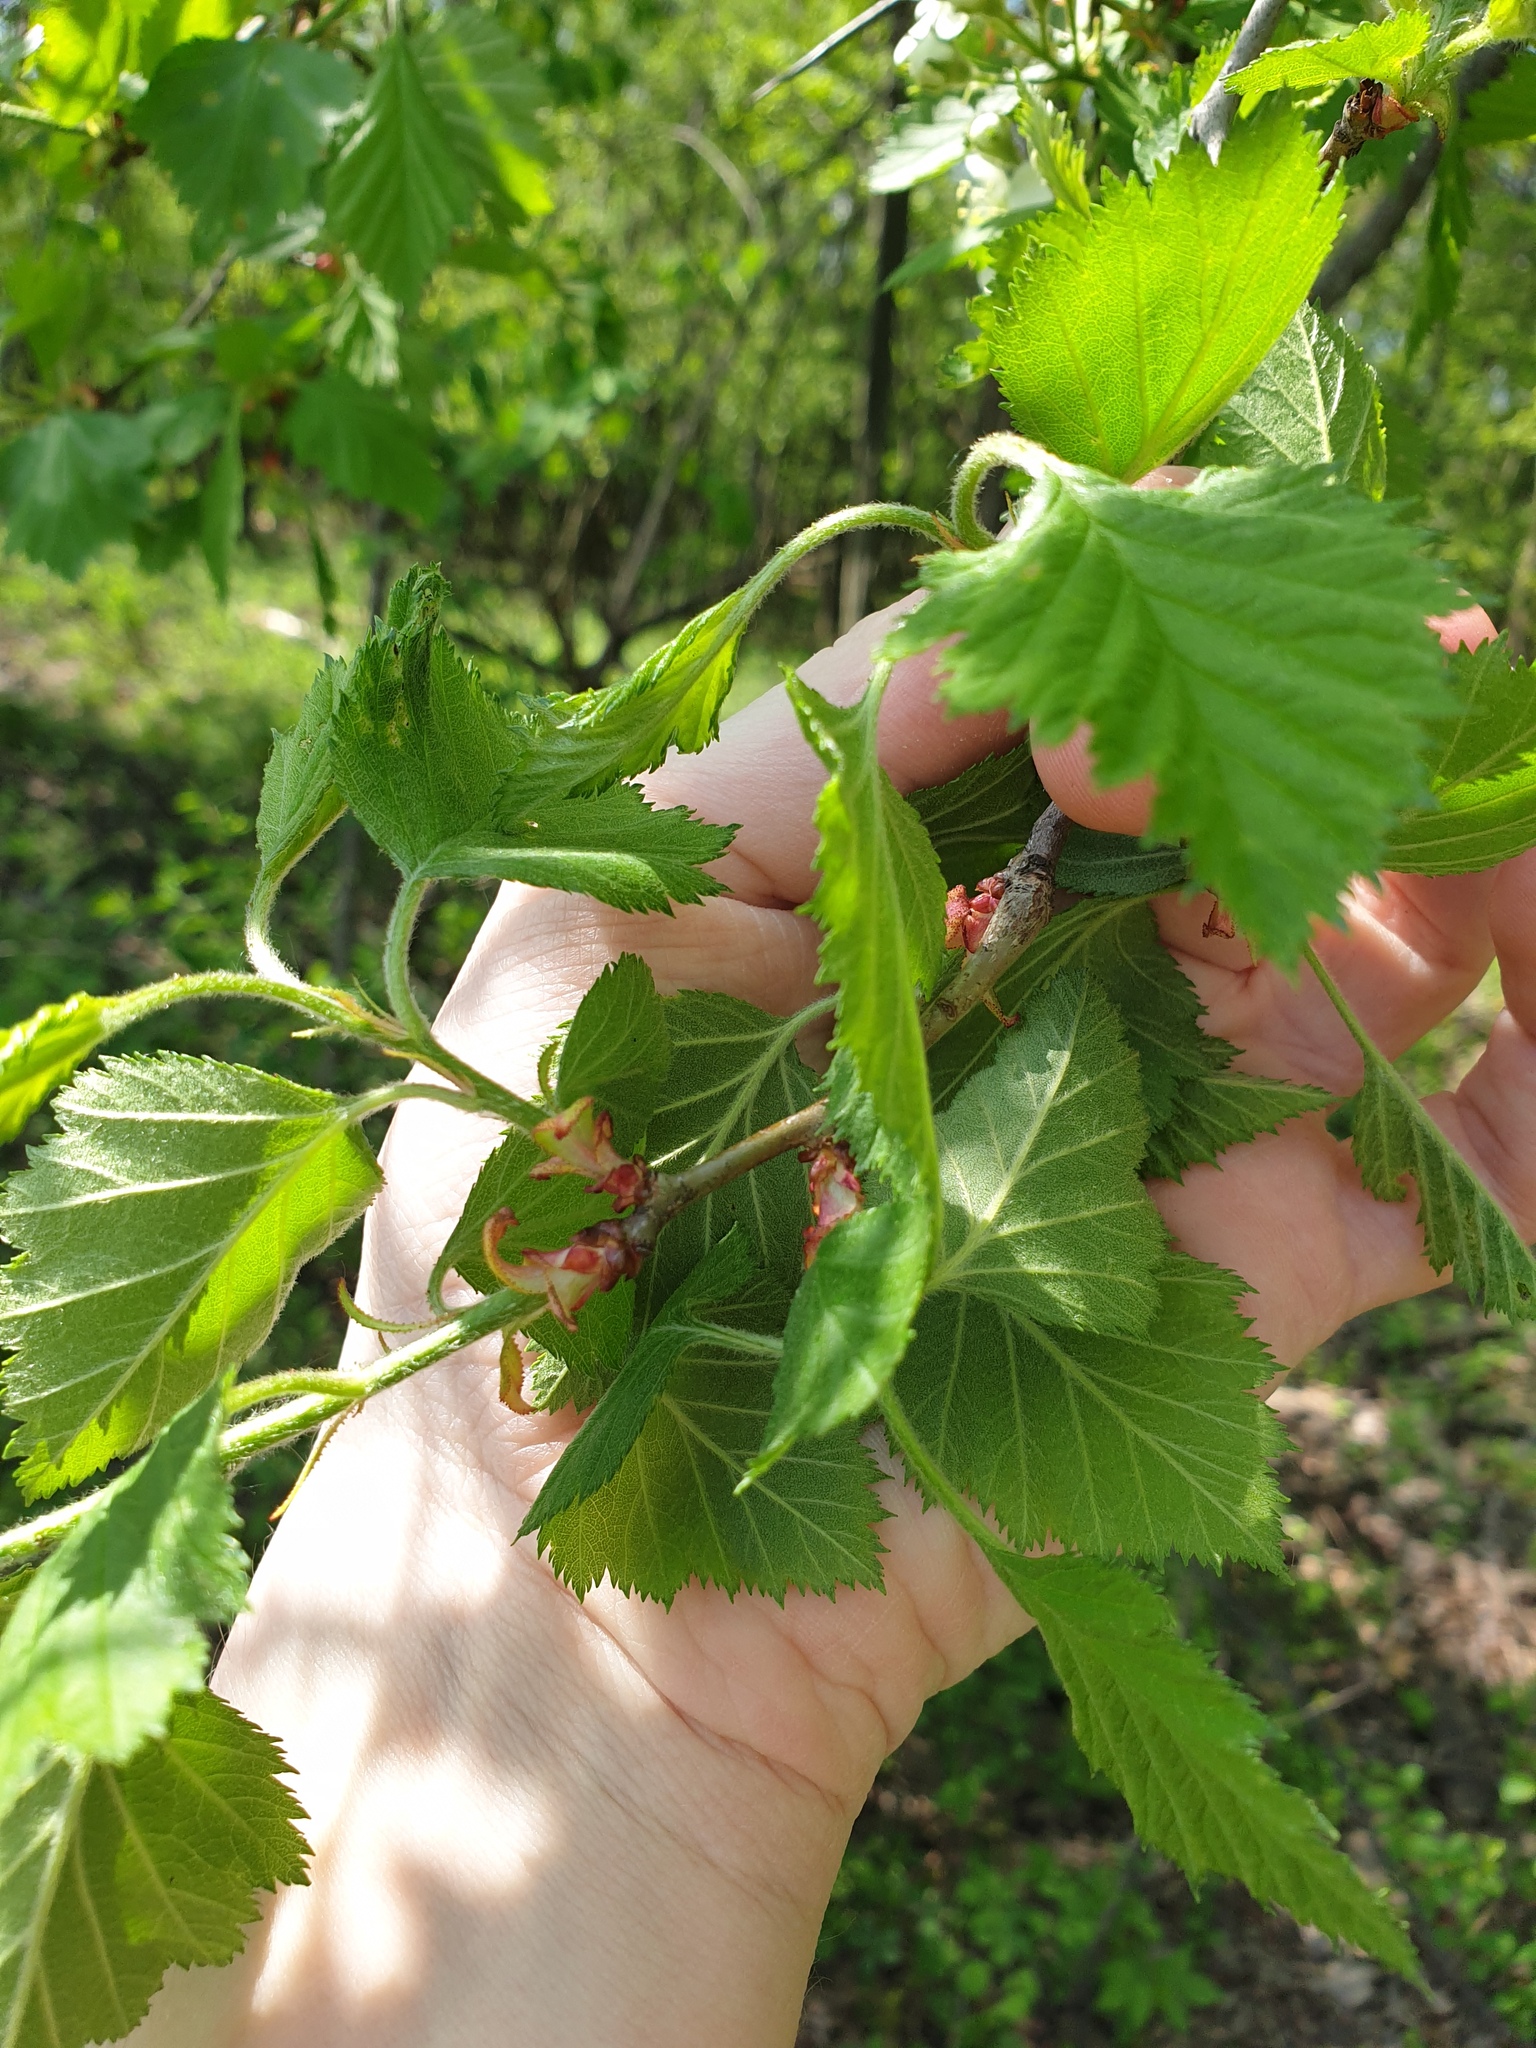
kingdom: Plantae
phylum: Tracheophyta
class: Magnoliopsida
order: Rosales
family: Rosaceae
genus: Crataegus
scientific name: Crataegus submollis
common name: Hairy cockspurthorn
